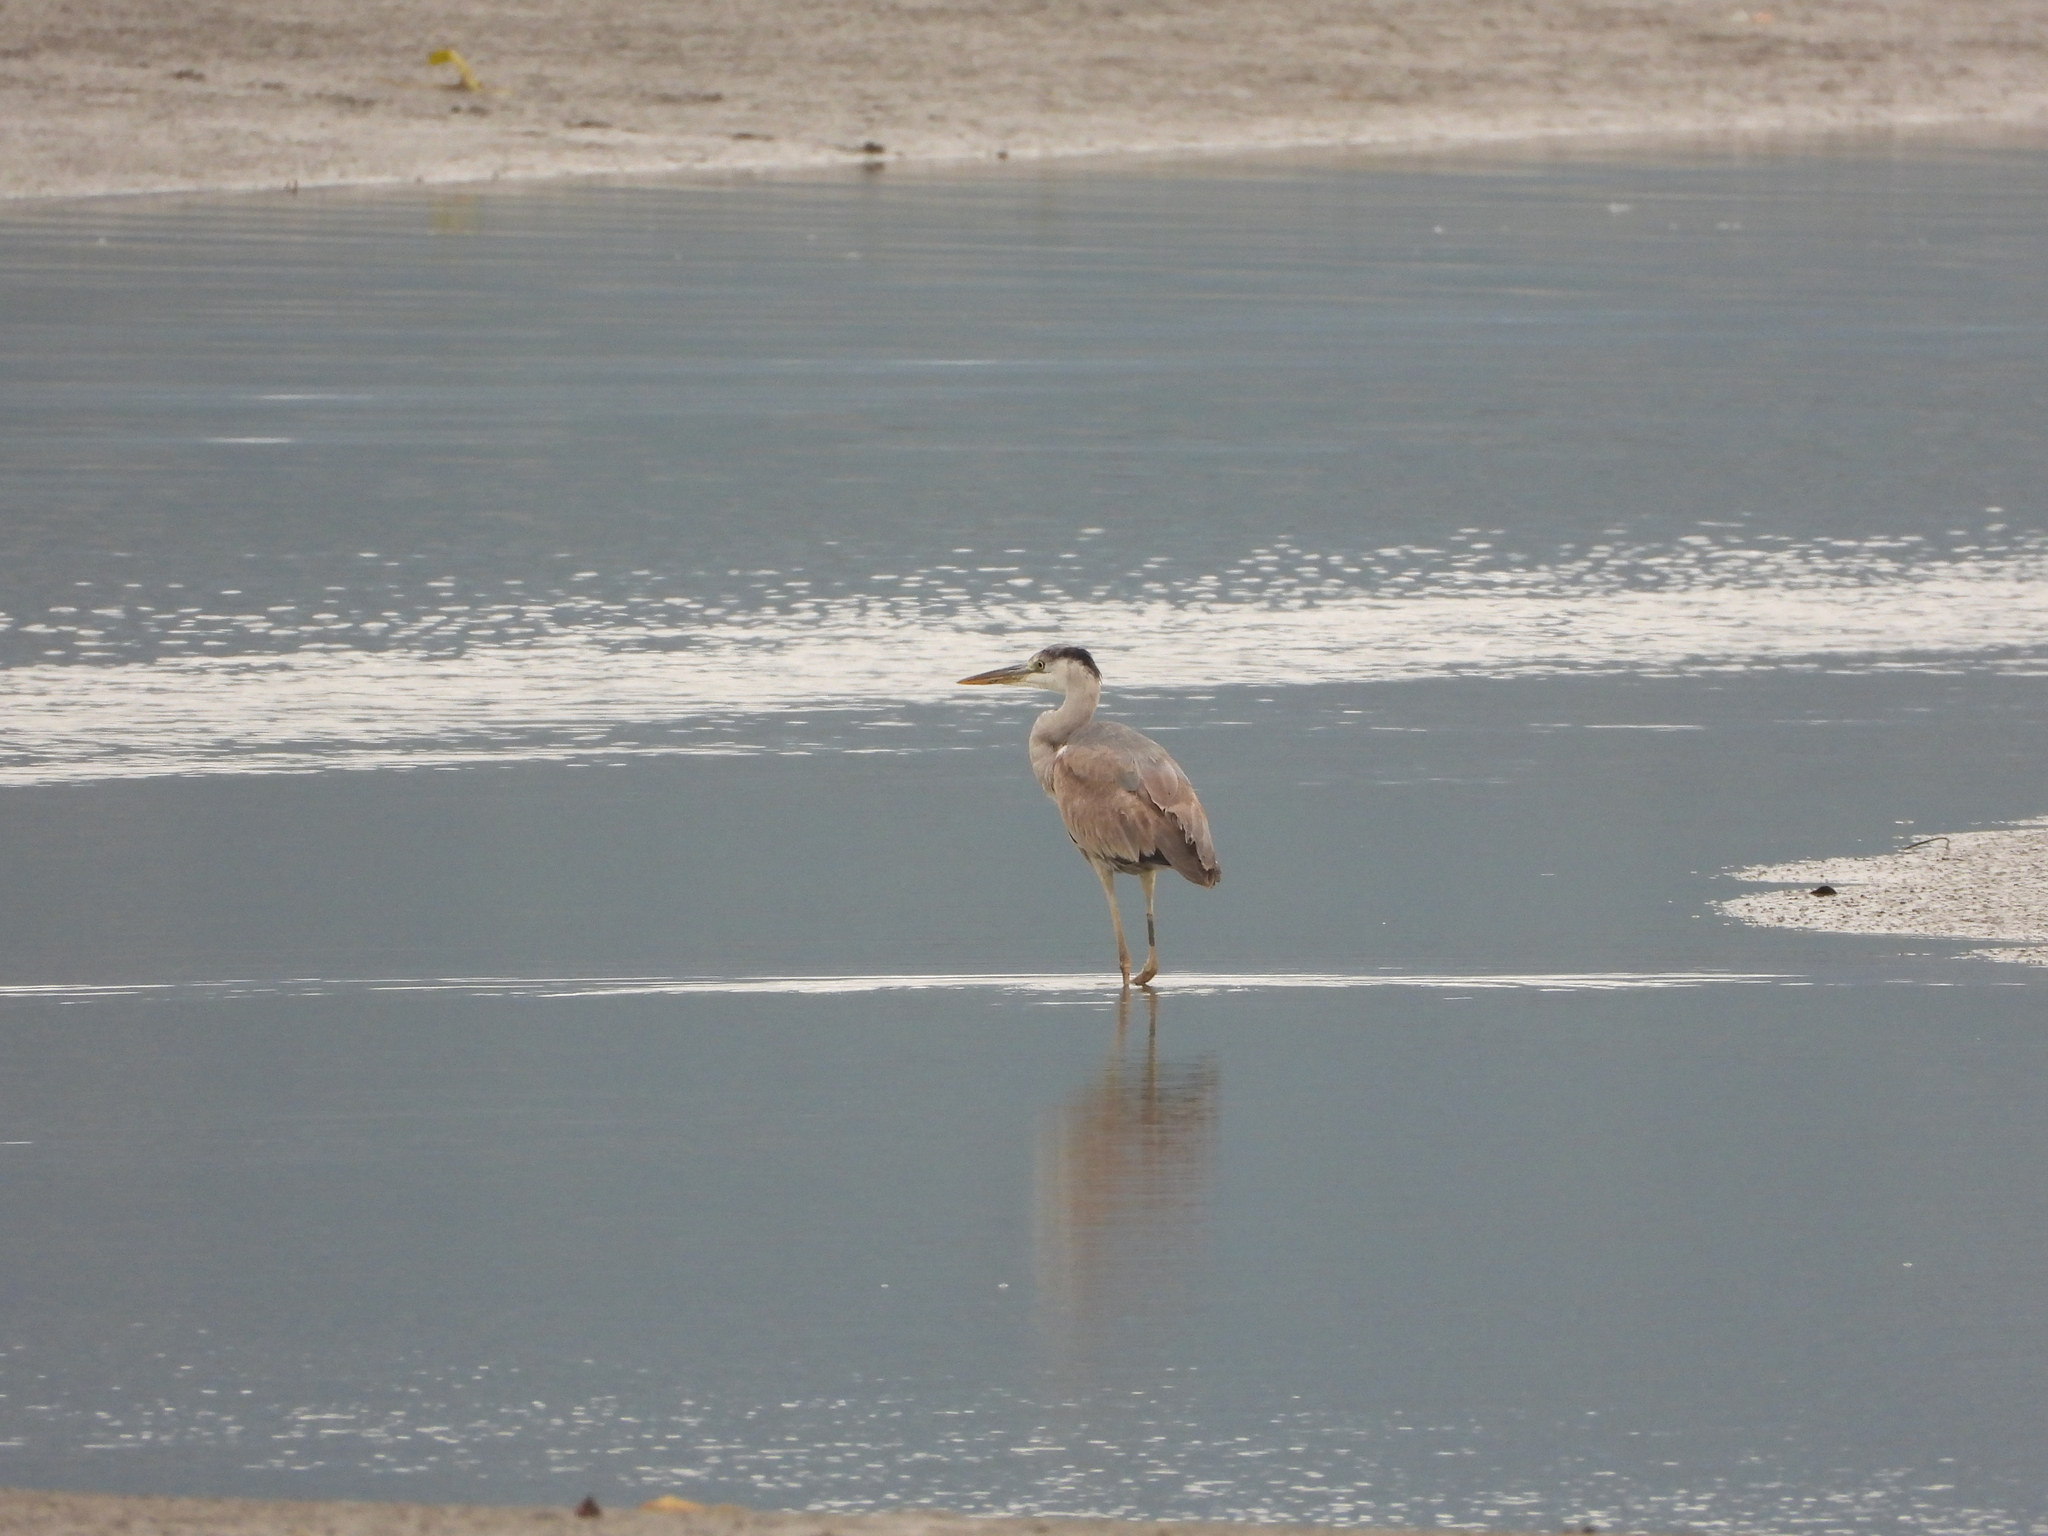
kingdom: Animalia
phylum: Chordata
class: Aves
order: Pelecaniformes
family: Ardeidae
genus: Ardea
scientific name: Ardea cinerea
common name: Grey heron
